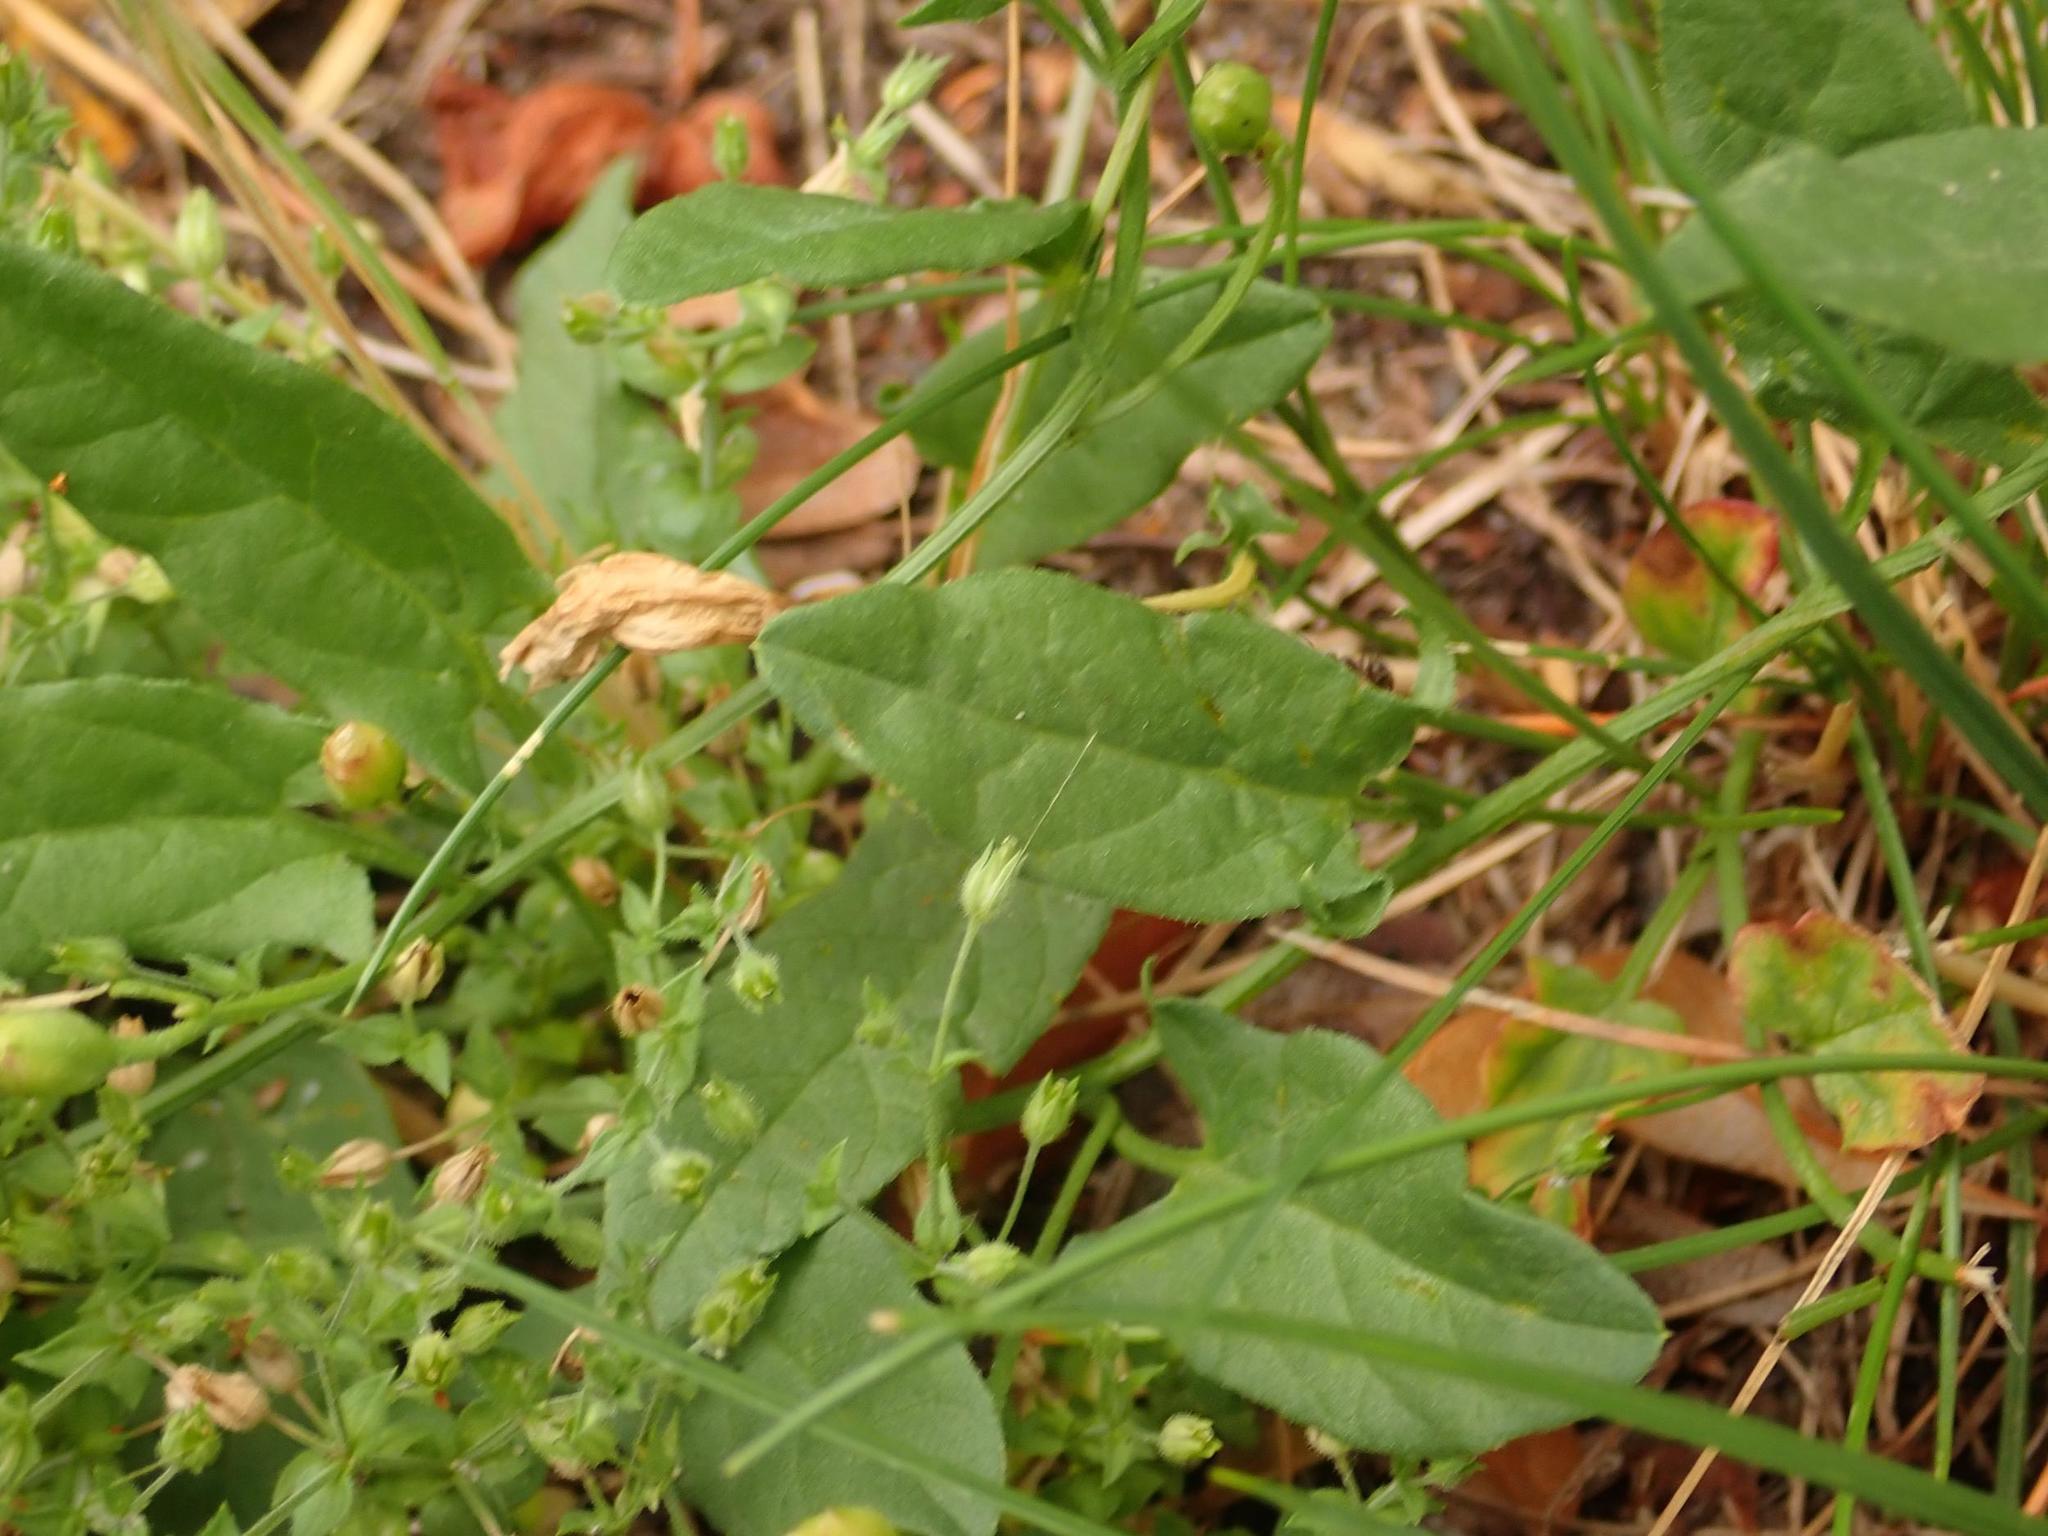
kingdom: Plantae
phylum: Tracheophyta
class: Magnoliopsida
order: Solanales
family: Convolvulaceae
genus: Convolvulus
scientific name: Convolvulus arvensis
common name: Field bindweed
